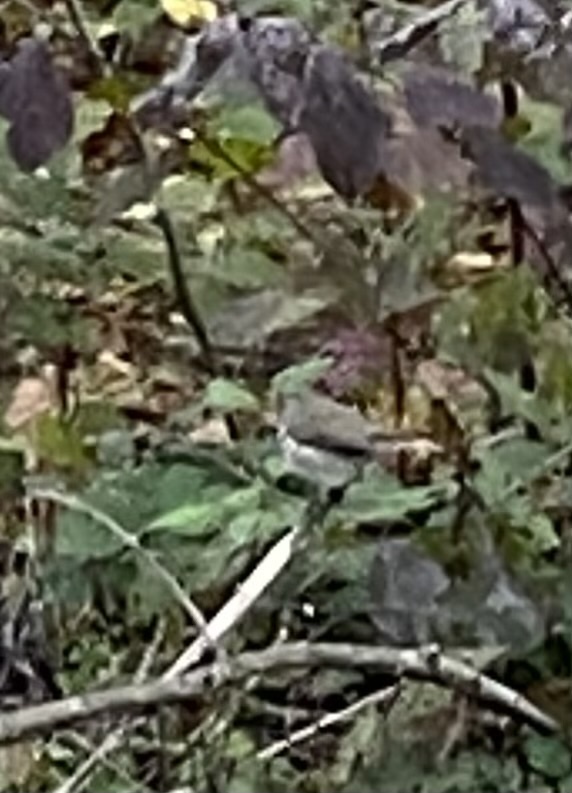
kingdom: Animalia
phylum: Chordata
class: Aves
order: Passeriformes
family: Muscicapidae
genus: Erithacus
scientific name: Erithacus rubecula
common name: European robin
